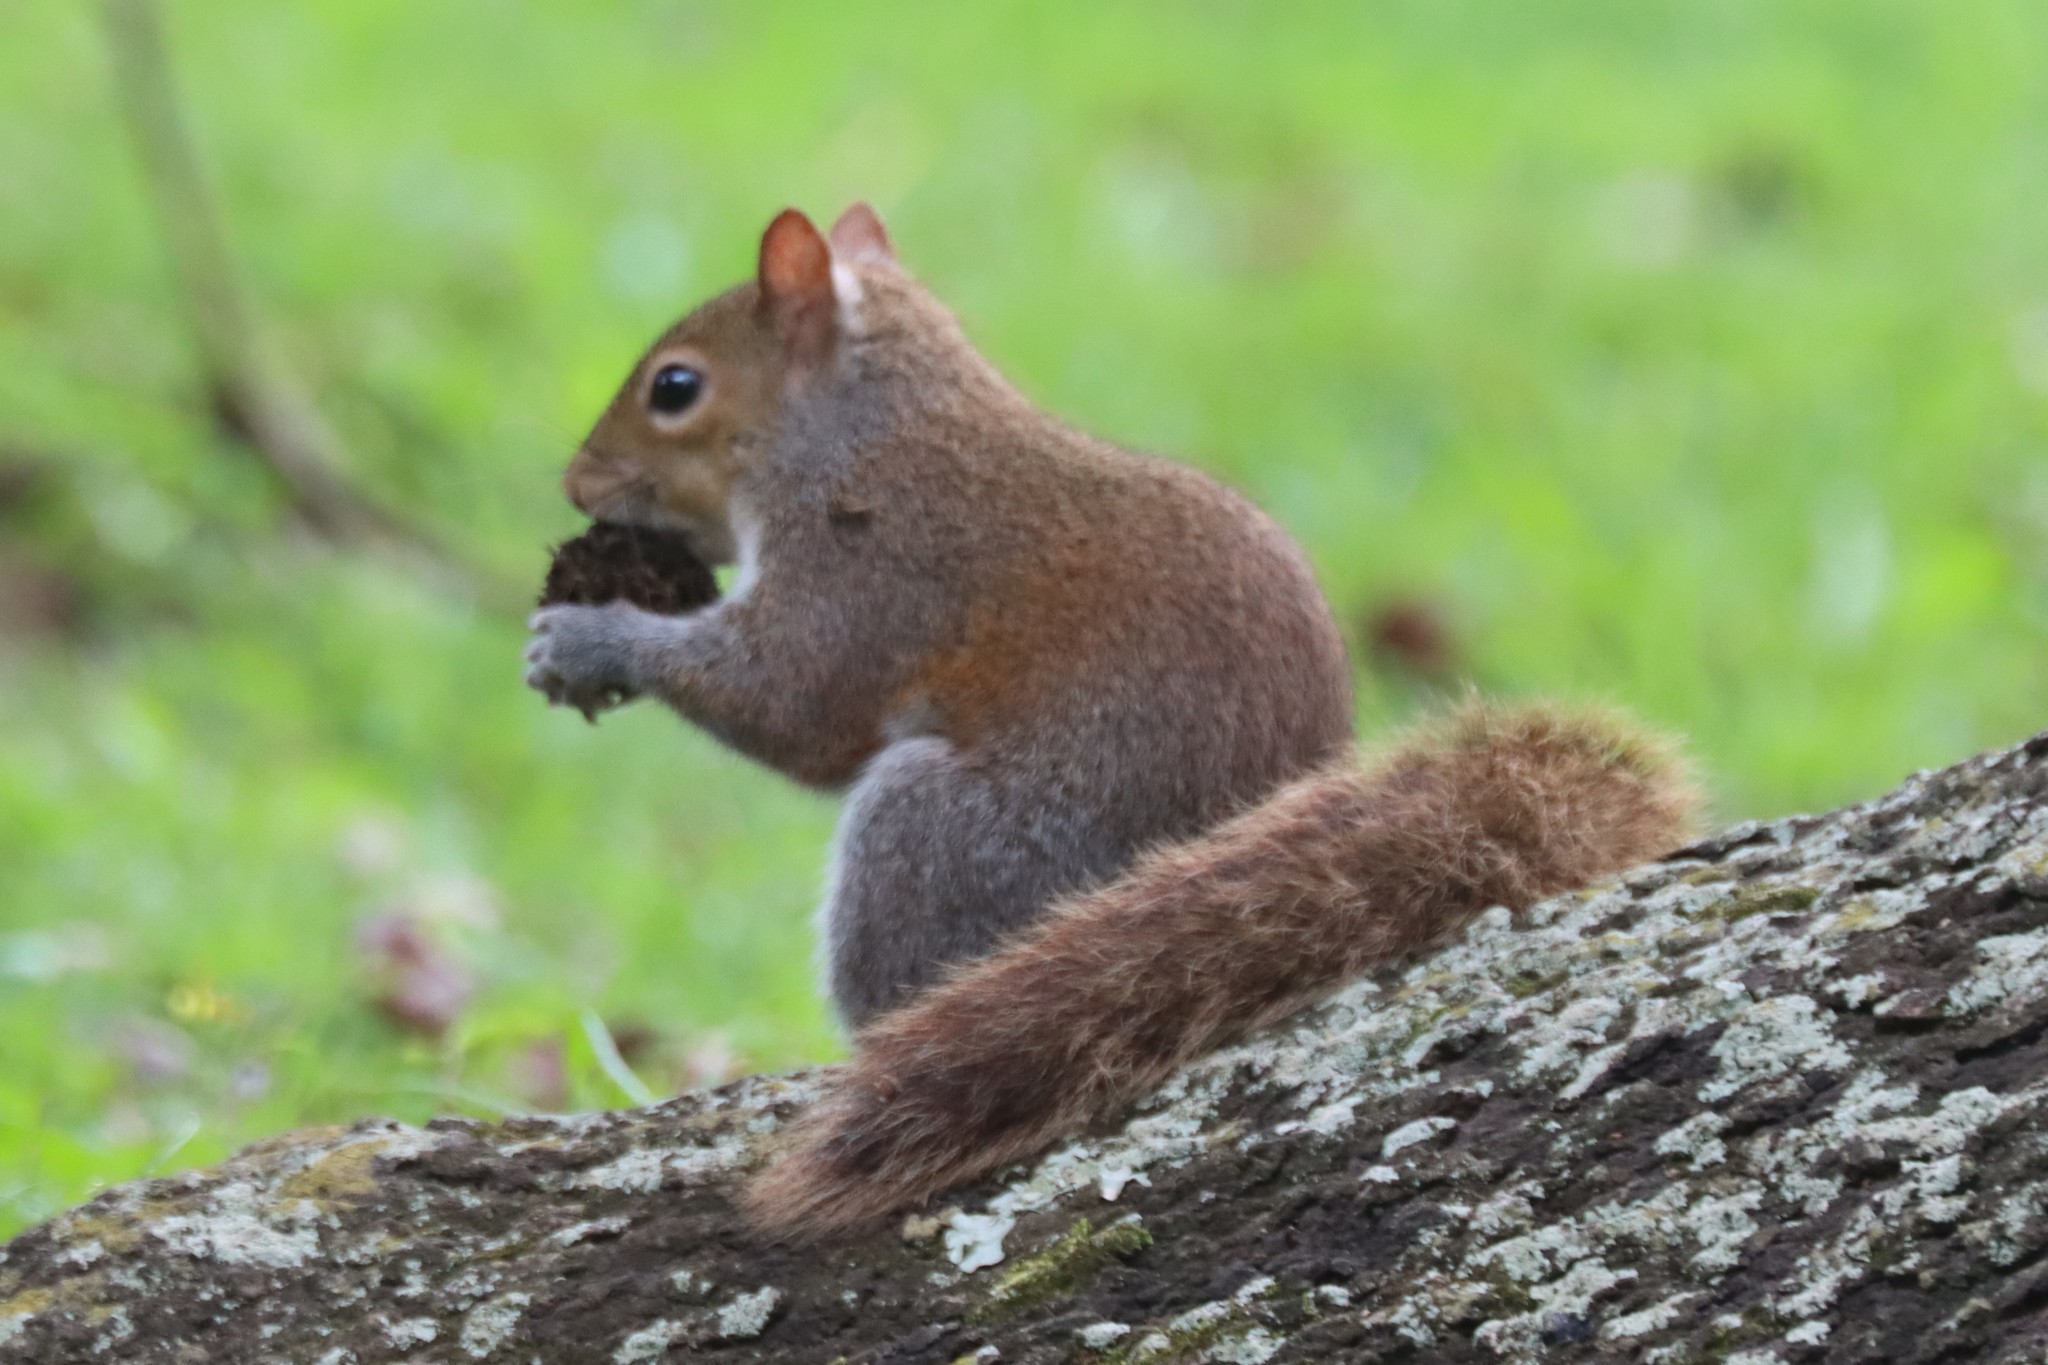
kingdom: Animalia
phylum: Chordata
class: Mammalia
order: Rodentia
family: Sciuridae
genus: Sciurus
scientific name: Sciurus carolinensis
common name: Eastern gray squirrel
